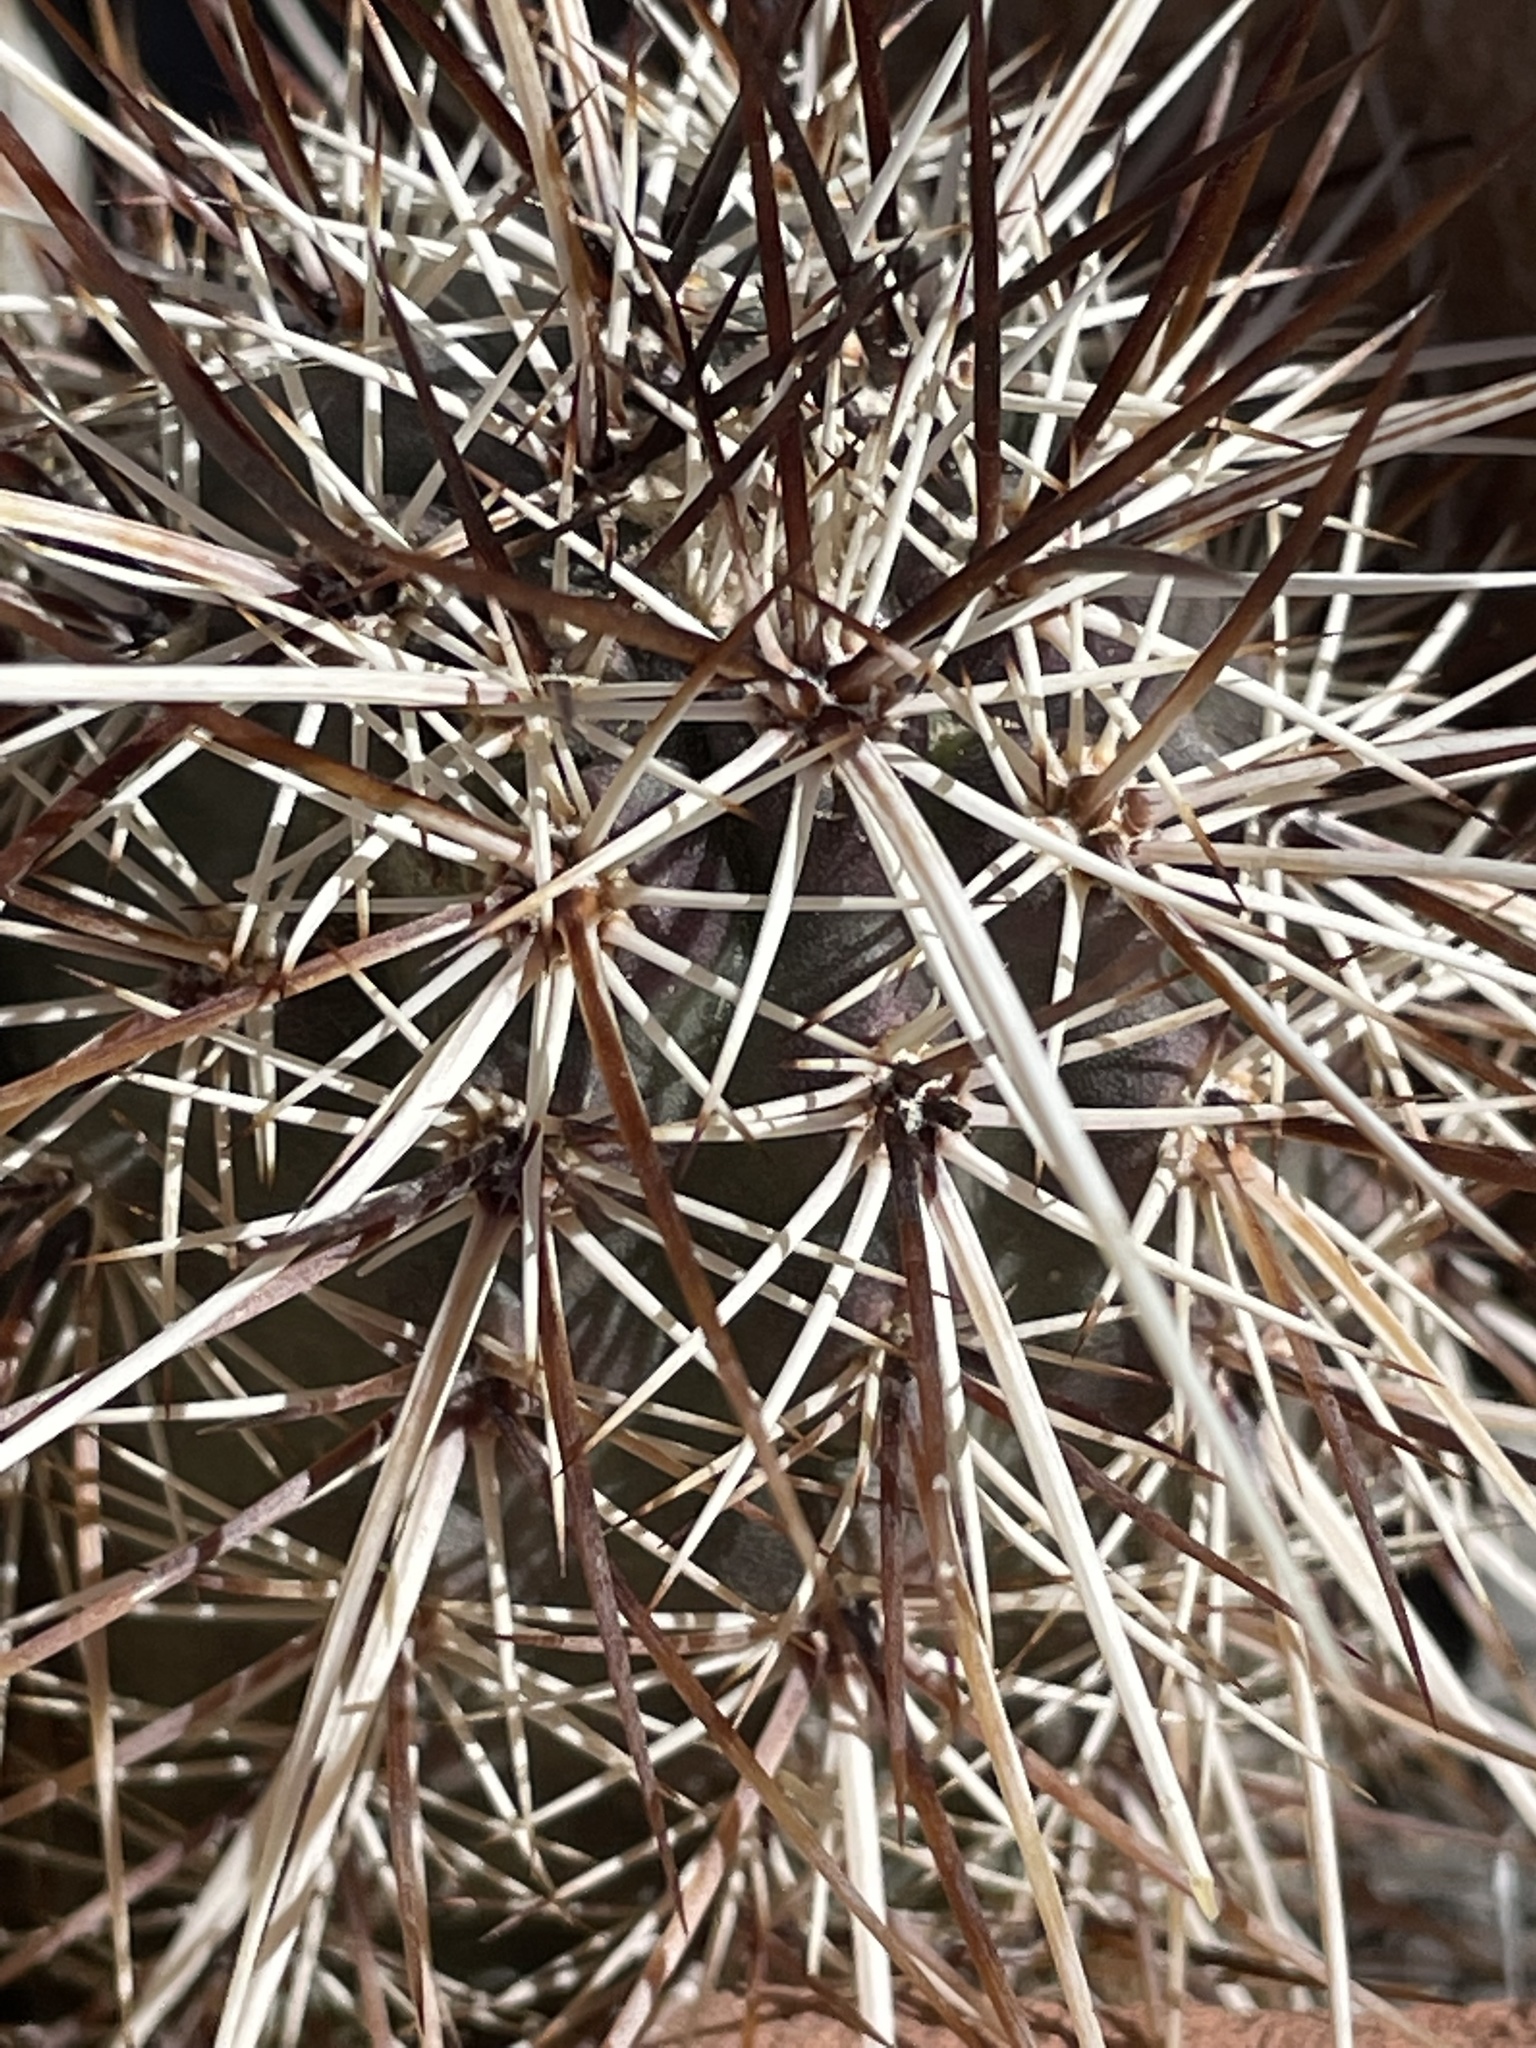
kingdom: Plantae
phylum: Tracheophyta
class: Magnoliopsida
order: Caryophyllales
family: Cactaceae
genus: Echinocereus
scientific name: Echinocereus engelmannii
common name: Engelmann's hedgehog cactus
